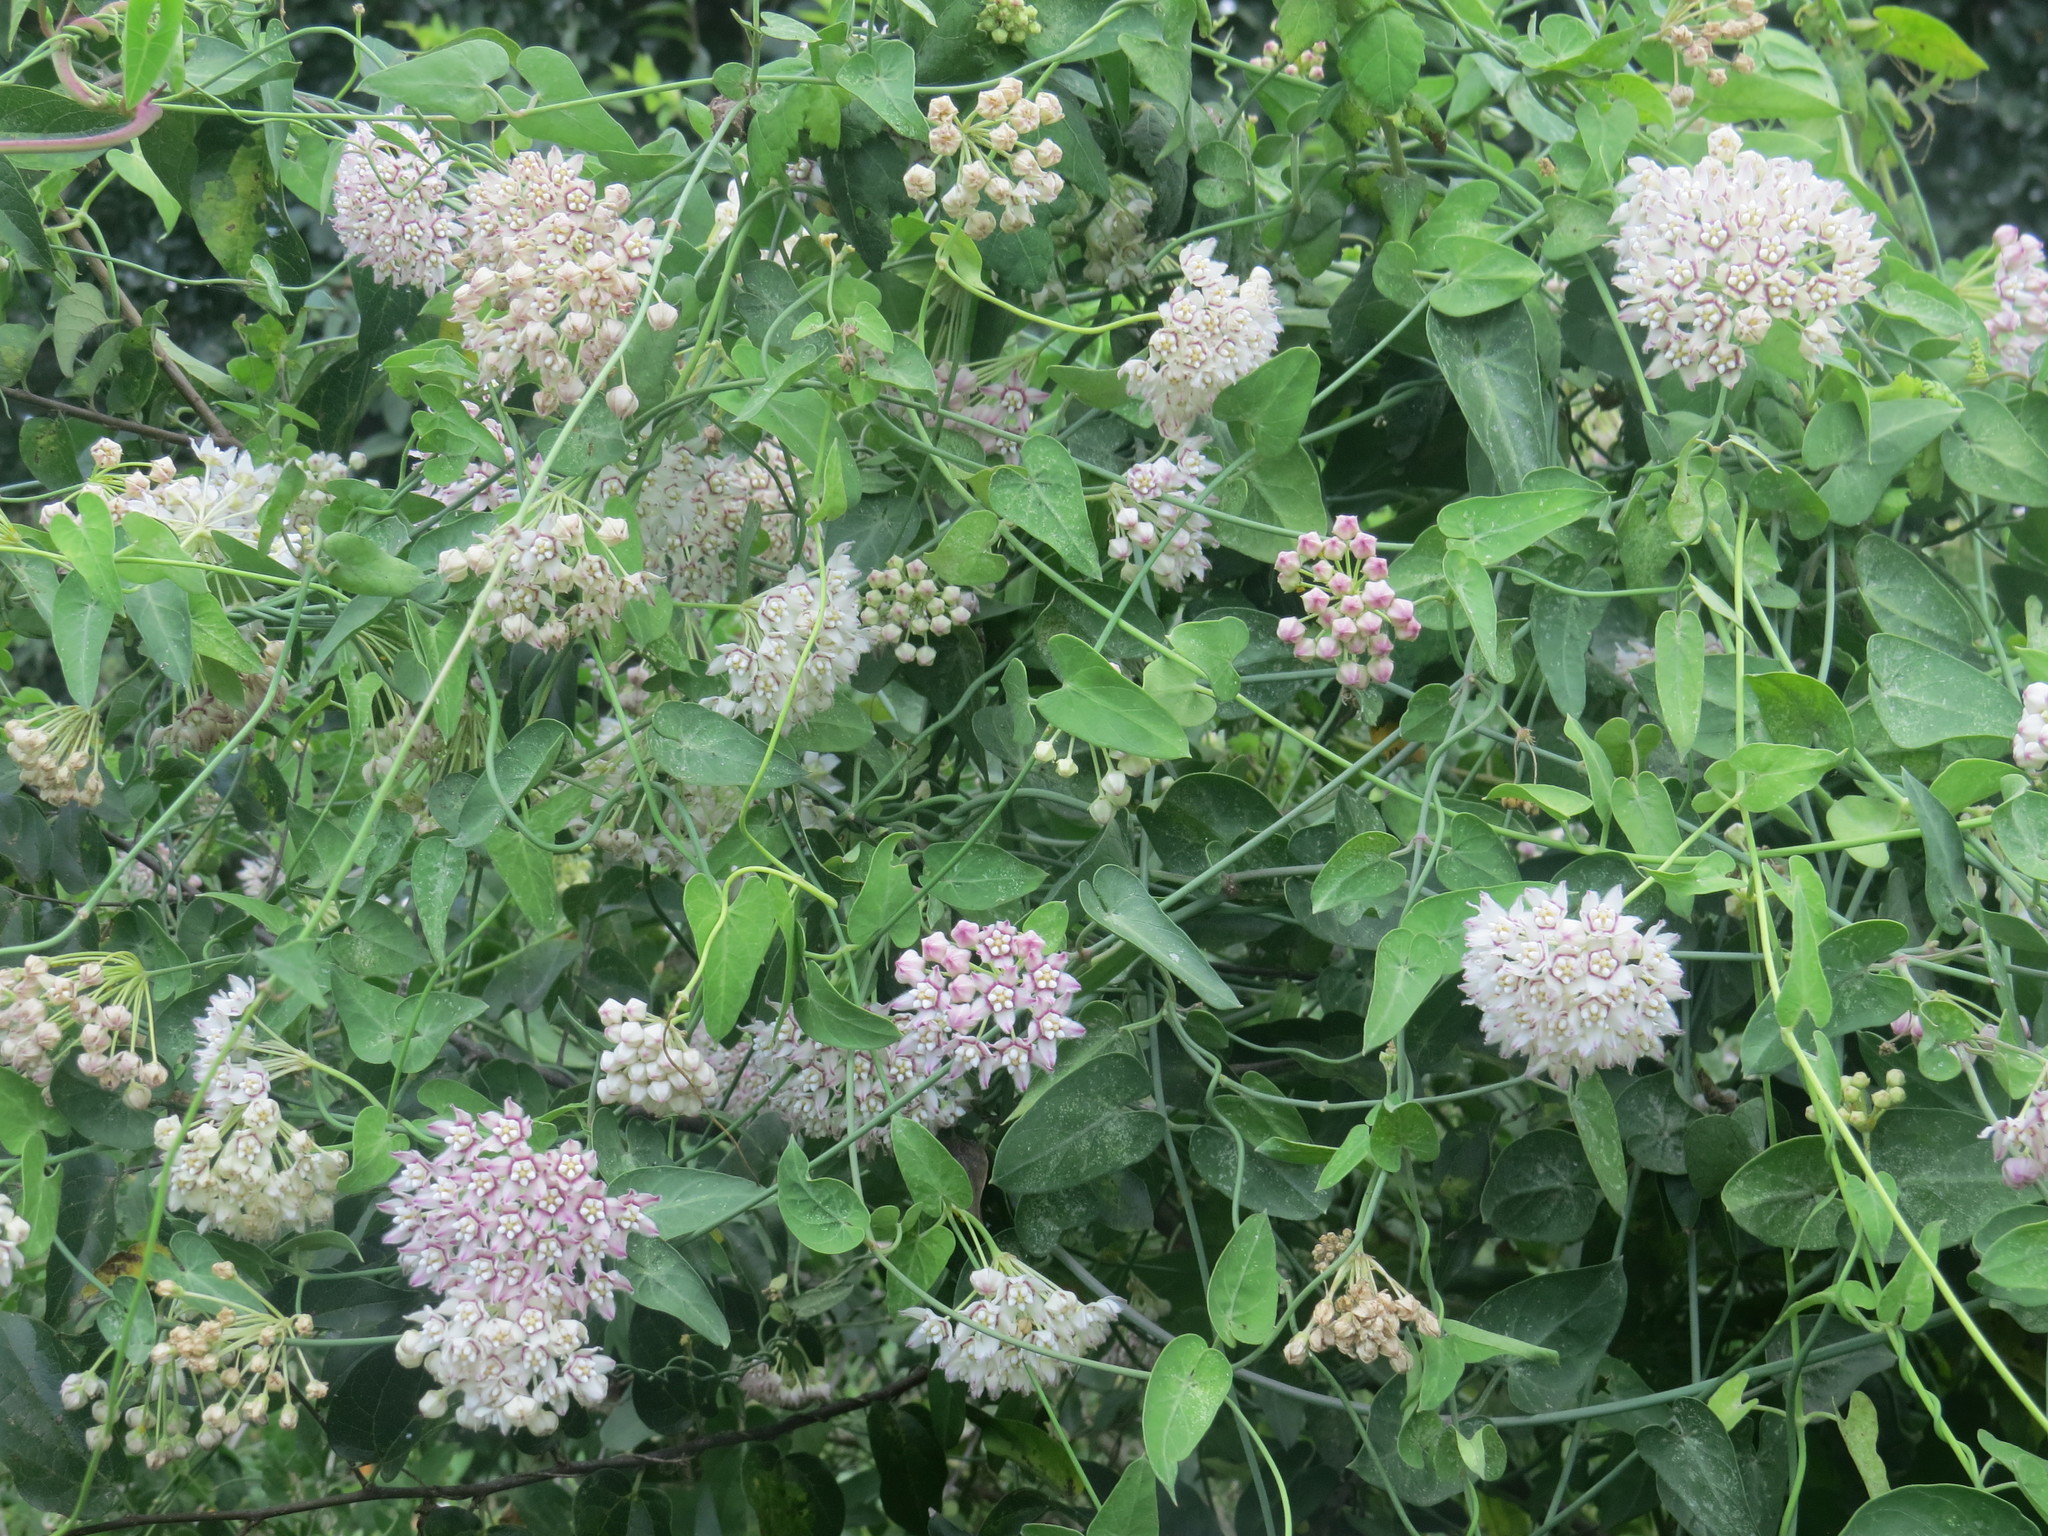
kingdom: Plantae
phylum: Tracheophyta
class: Magnoliopsida
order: Gentianales
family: Apocynaceae
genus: Funastrum
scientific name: Funastrum cynanchoides
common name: Climbing-milkweed
